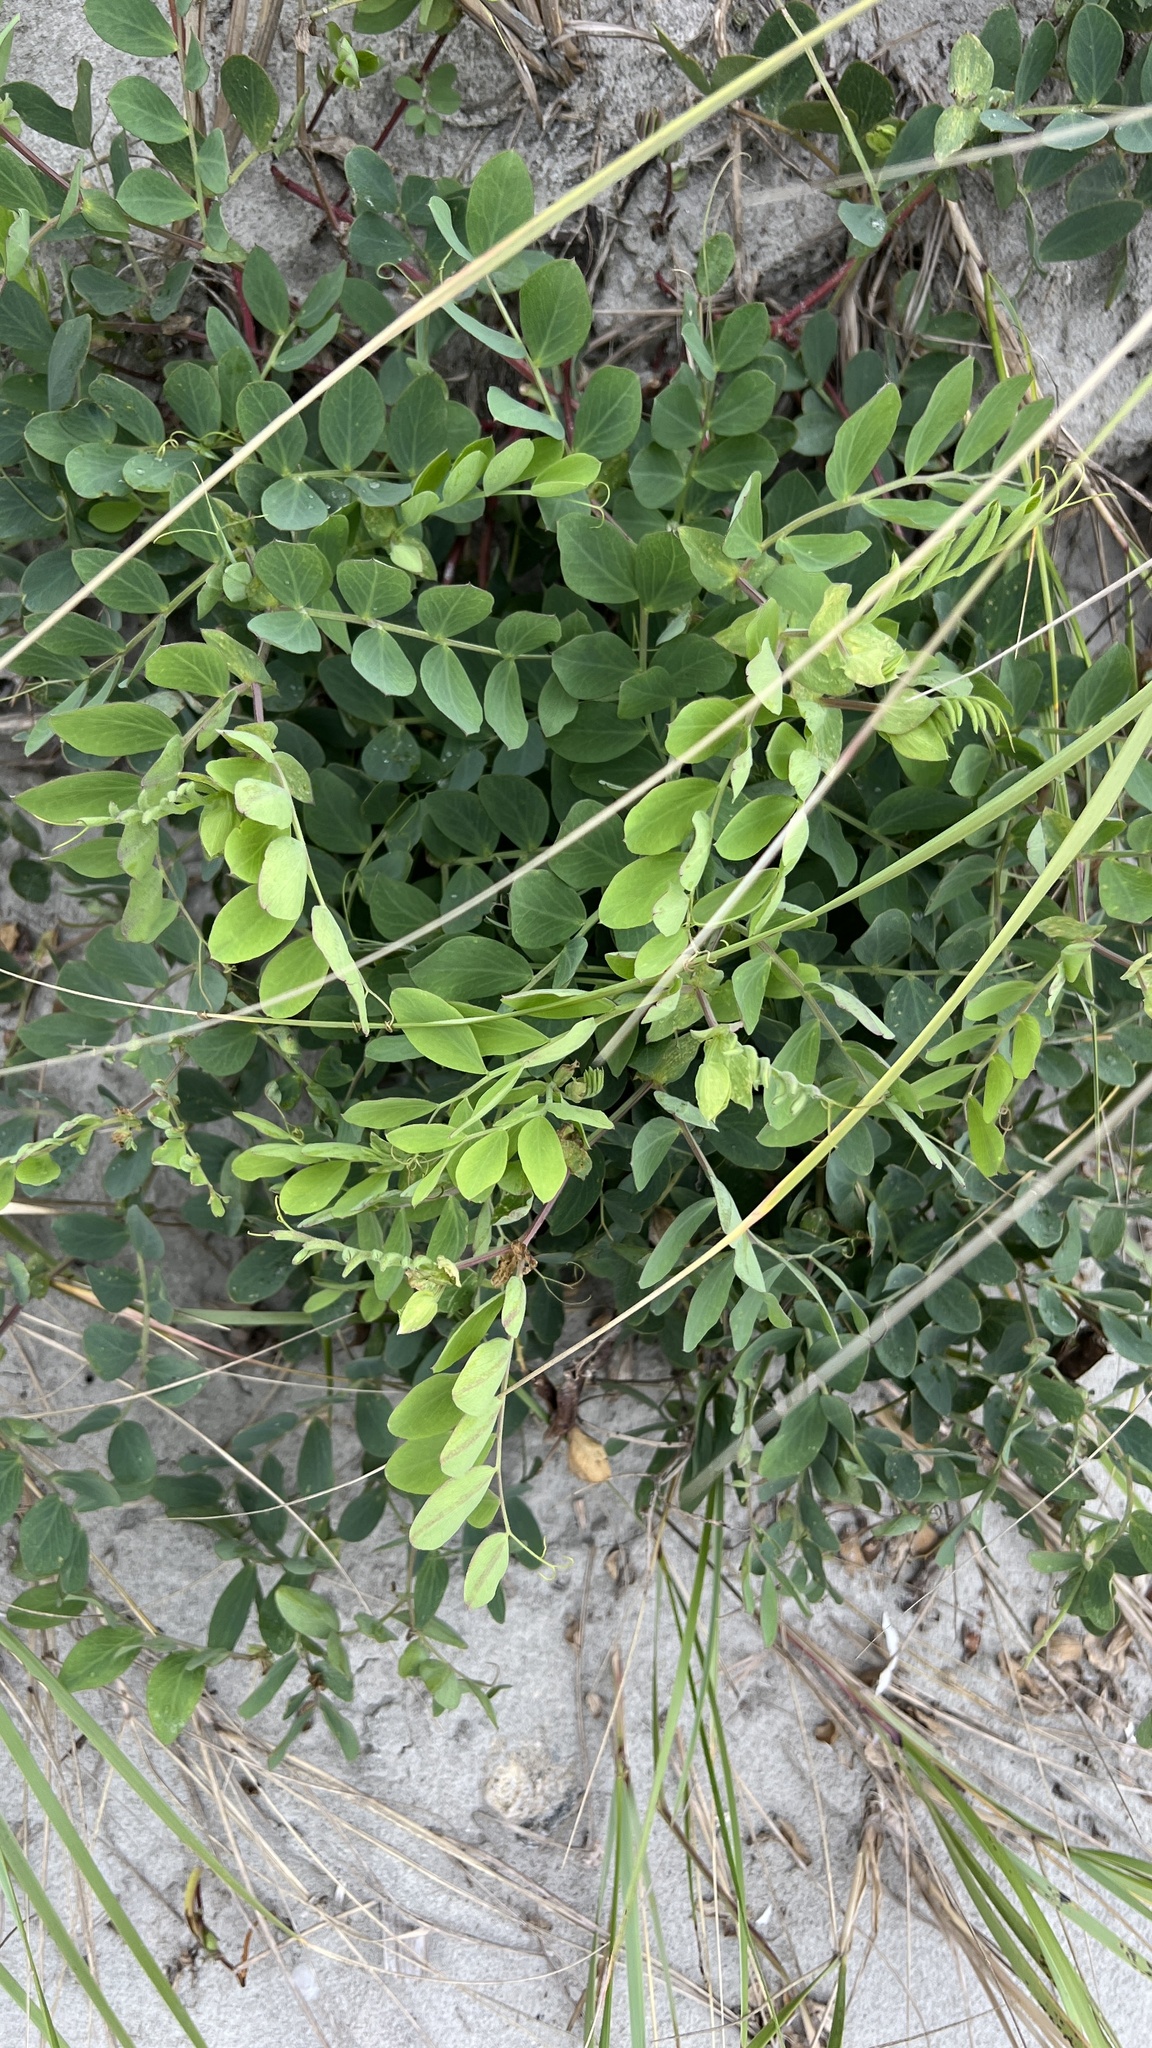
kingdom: Plantae
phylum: Tracheophyta
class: Magnoliopsida
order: Fabales
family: Fabaceae
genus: Lathyrus
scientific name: Lathyrus japonicus
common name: Sea pea
